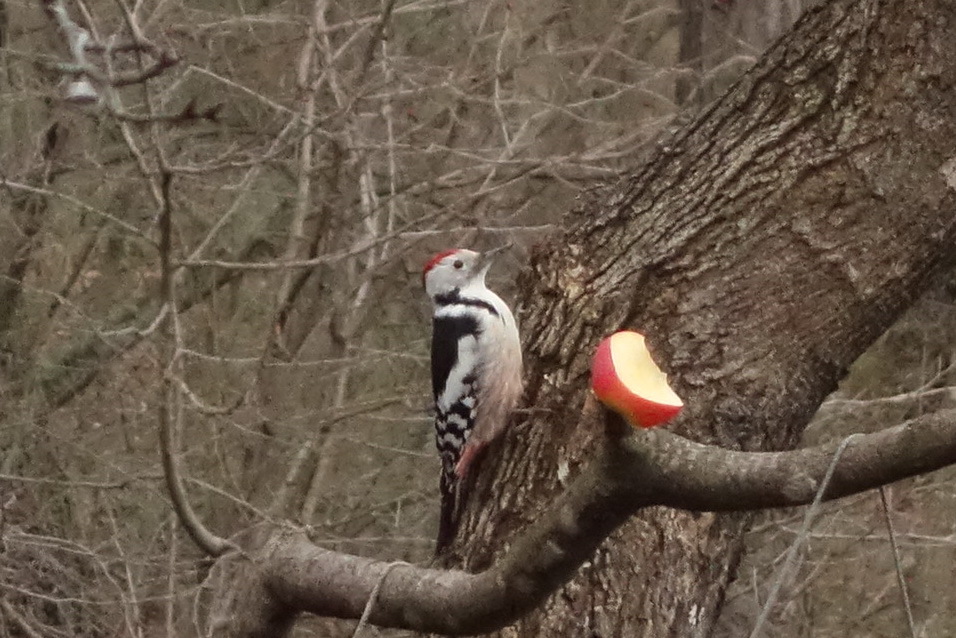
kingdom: Animalia
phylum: Chordata
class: Aves
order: Piciformes
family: Picidae
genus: Dendrocoptes
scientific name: Dendrocoptes medius
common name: Middle spotted woodpecker
